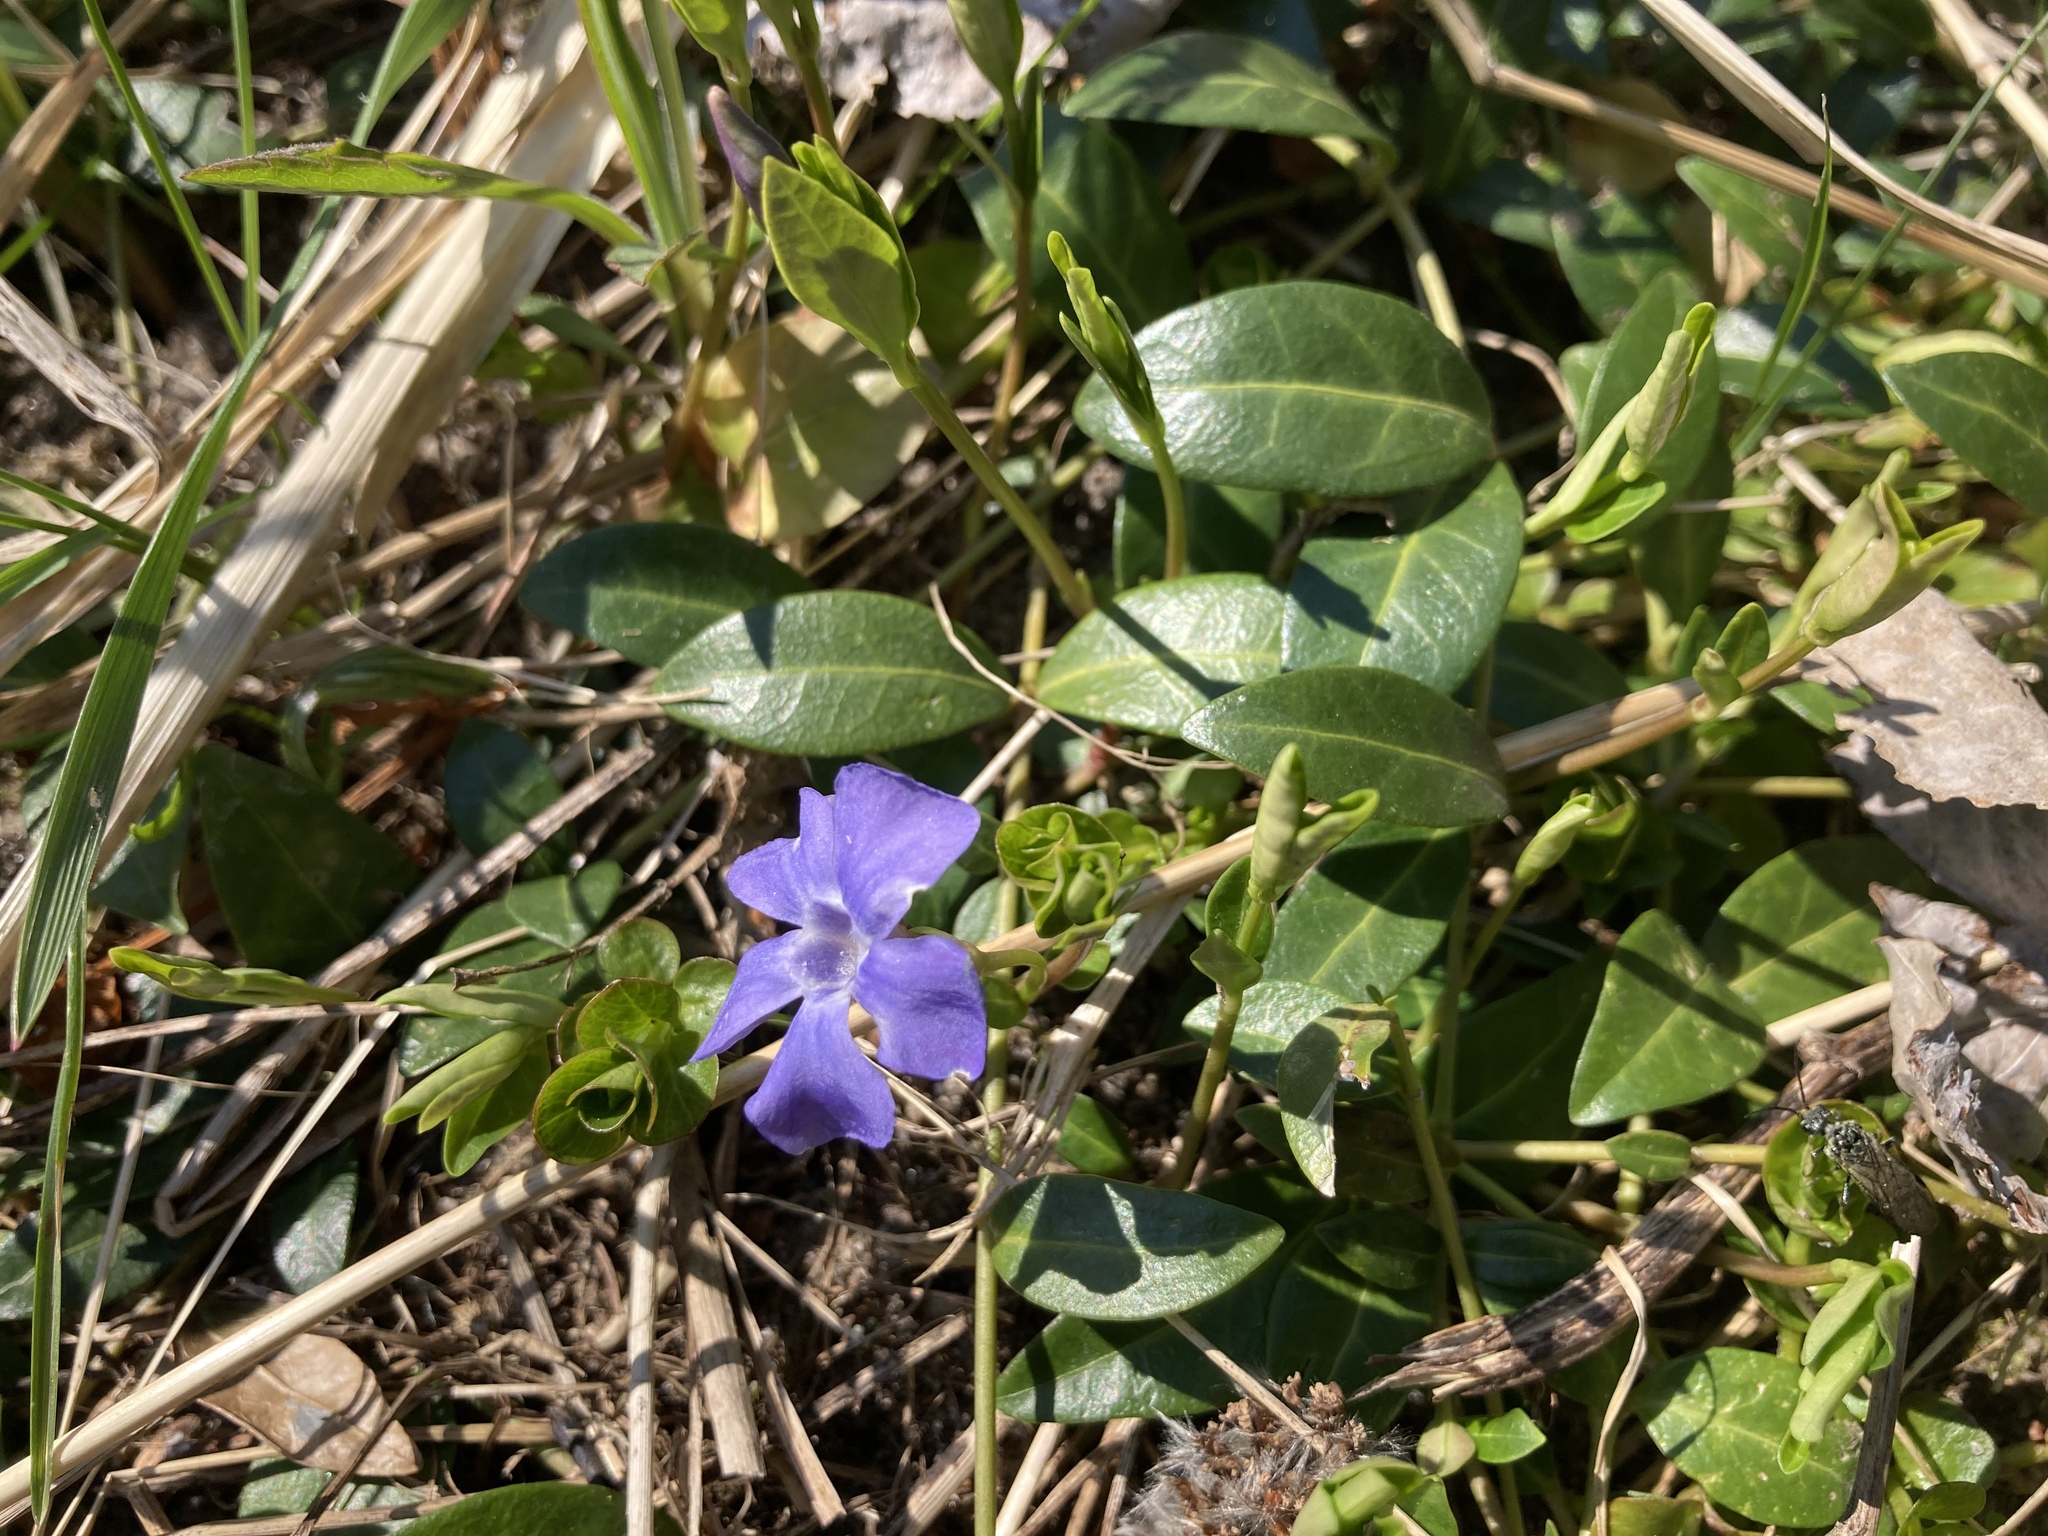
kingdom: Plantae
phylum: Tracheophyta
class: Magnoliopsida
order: Gentianales
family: Apocynaceae
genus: Vinca
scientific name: Vinca minor
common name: Lesser periwinkle
